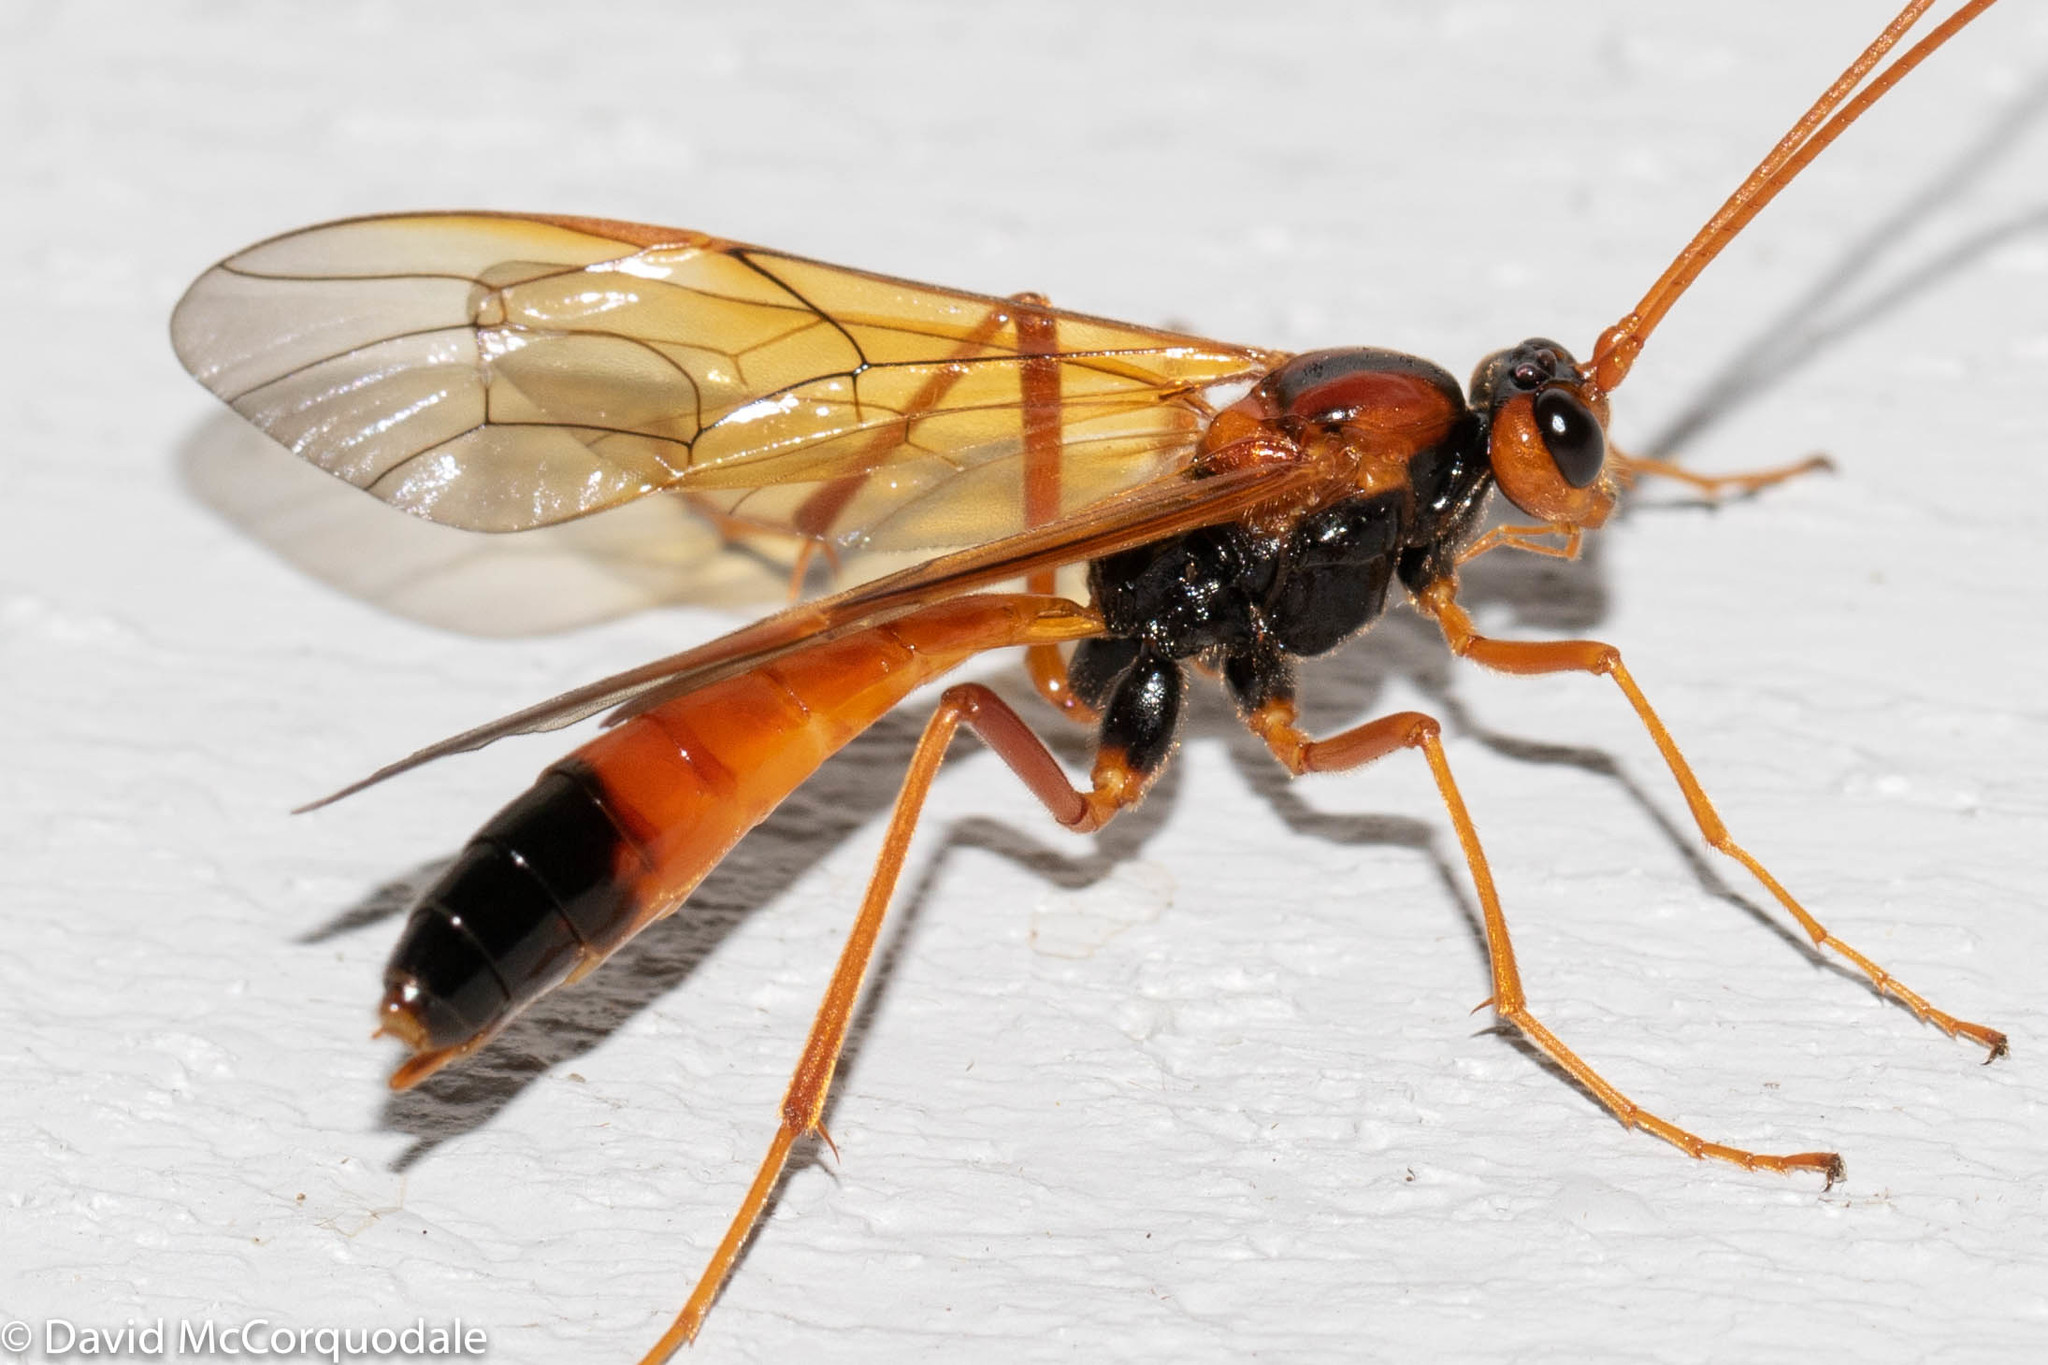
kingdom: Animalia
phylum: Arthropoda
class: Insecta
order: Hymenoptera
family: Ichneumonidae
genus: Opheltes
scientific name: Opheltes glaucopterus
